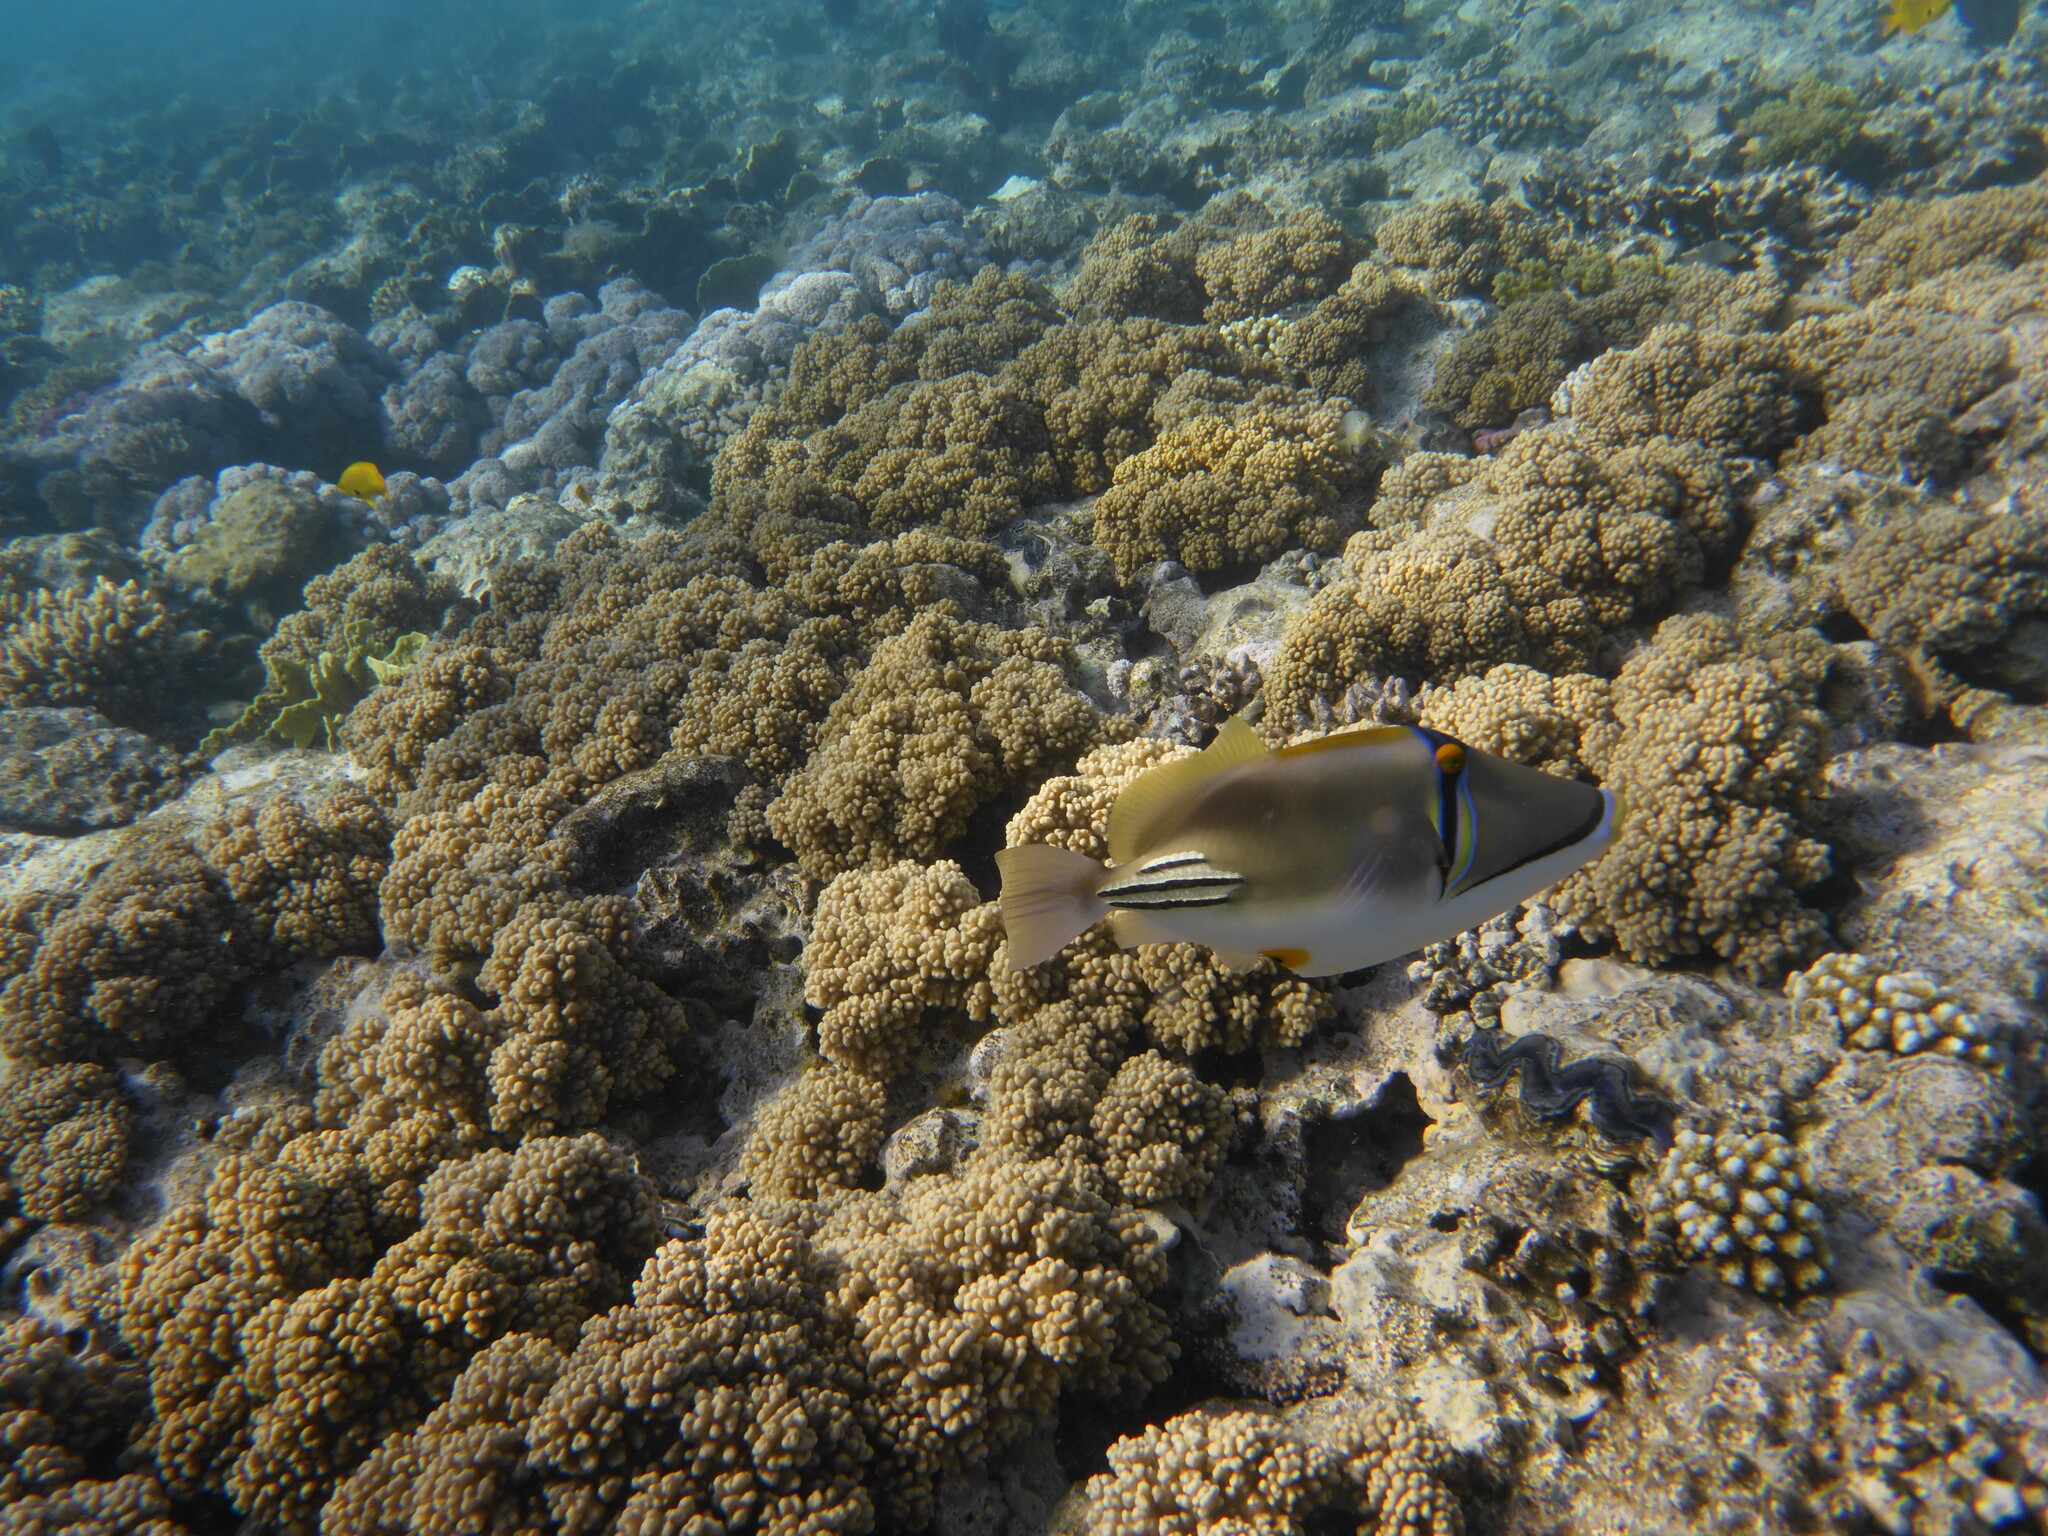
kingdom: Animalia
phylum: Chordata
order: Tetraodontiformes
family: Balistidae
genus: Rhinecanthus
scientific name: Rhinecanthus assasi
